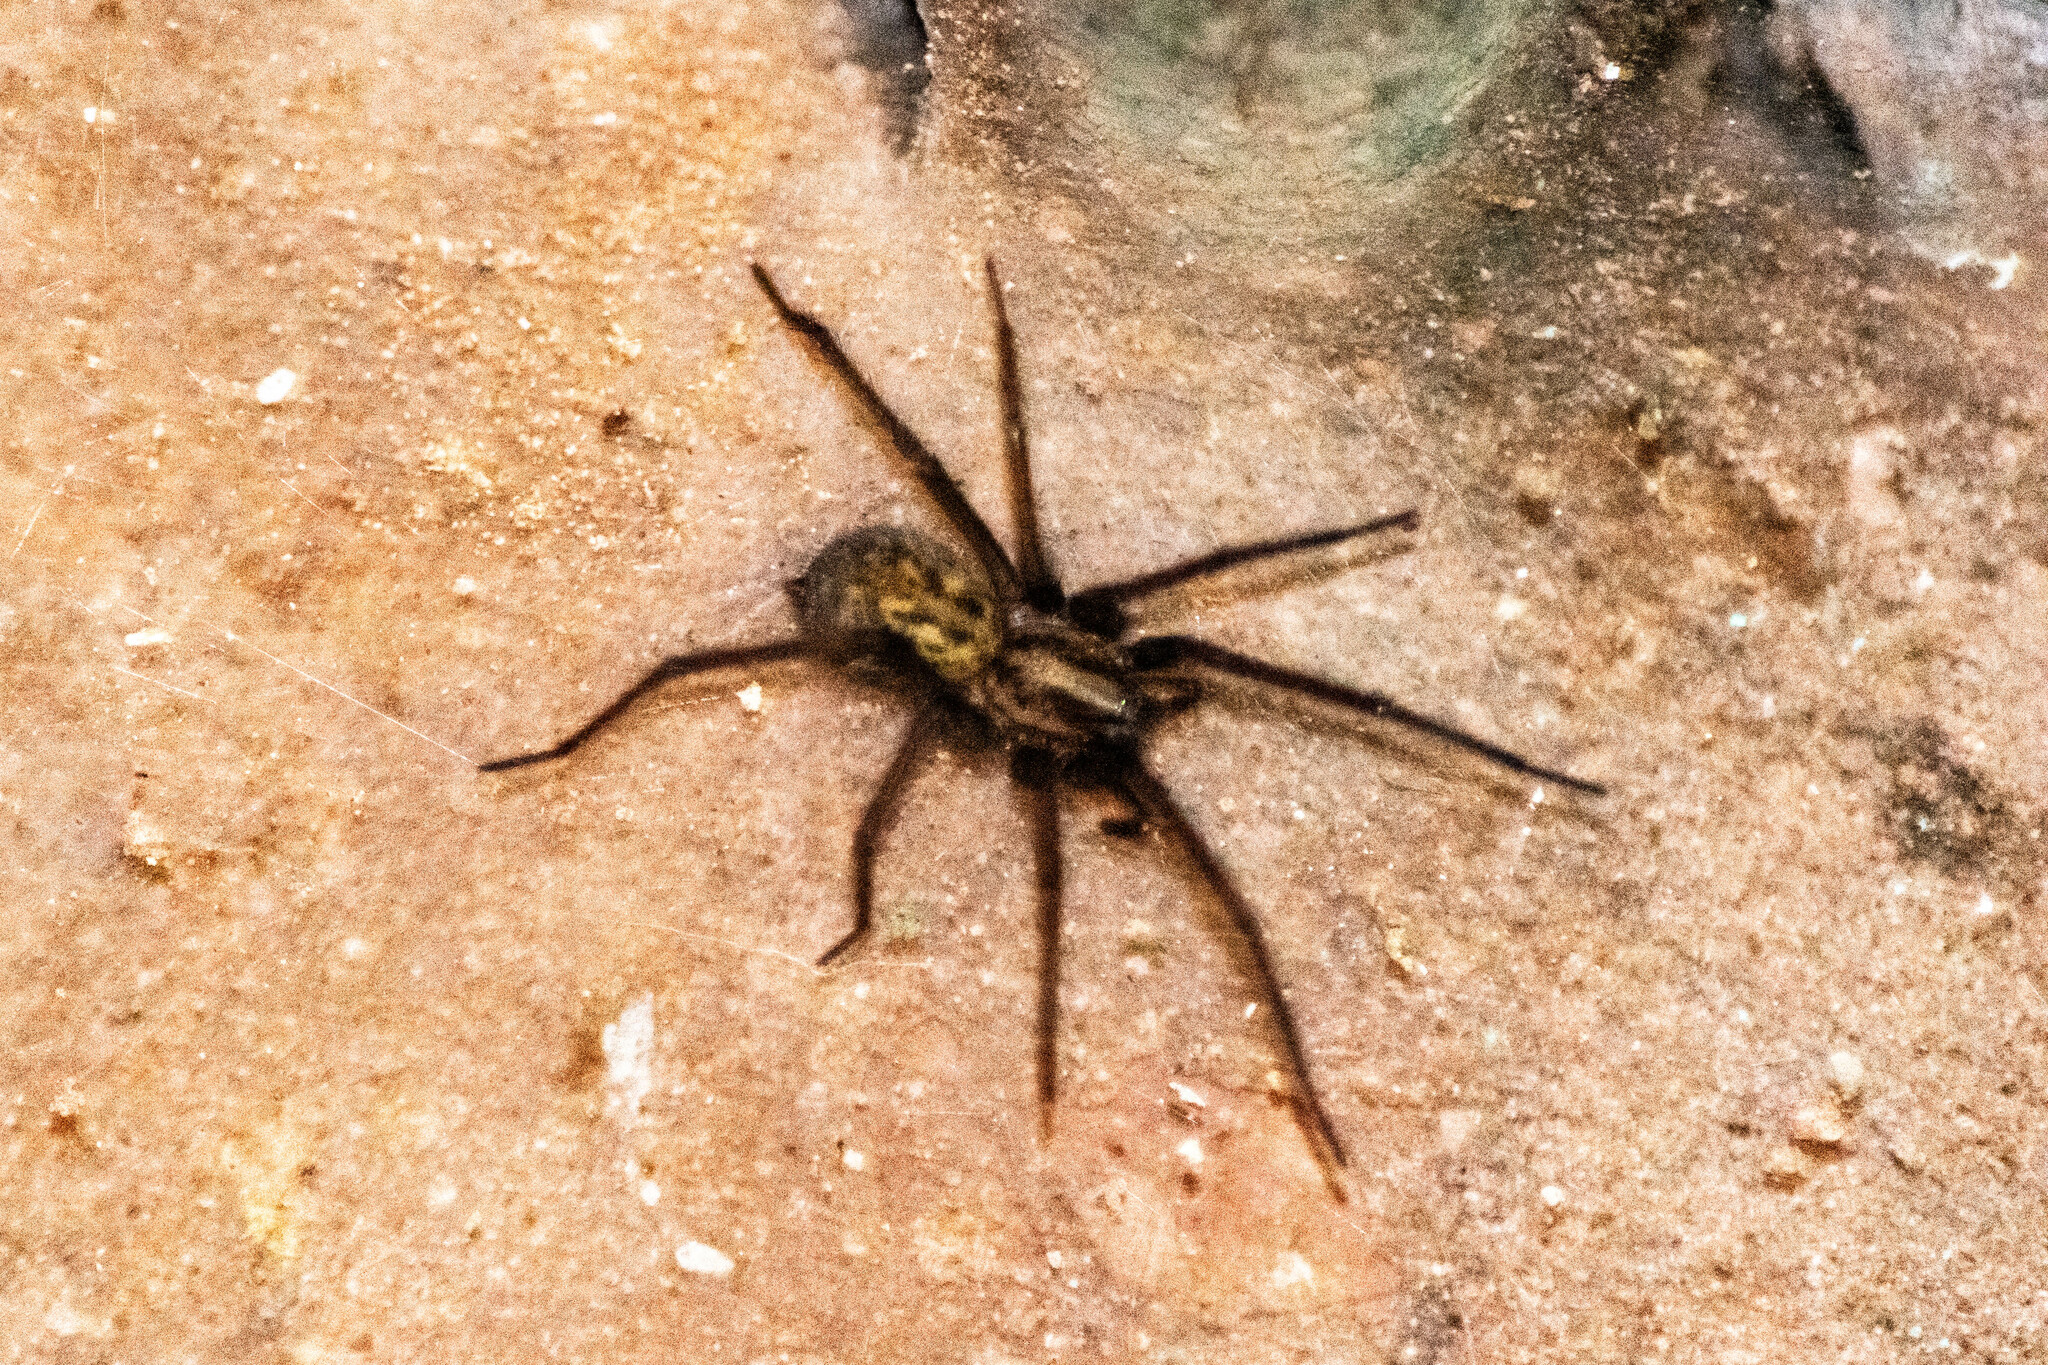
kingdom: Animalia
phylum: Arthropoda
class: Arachnida
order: Araneae
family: Agelenidae
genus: Eratigena
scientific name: Eratigena
